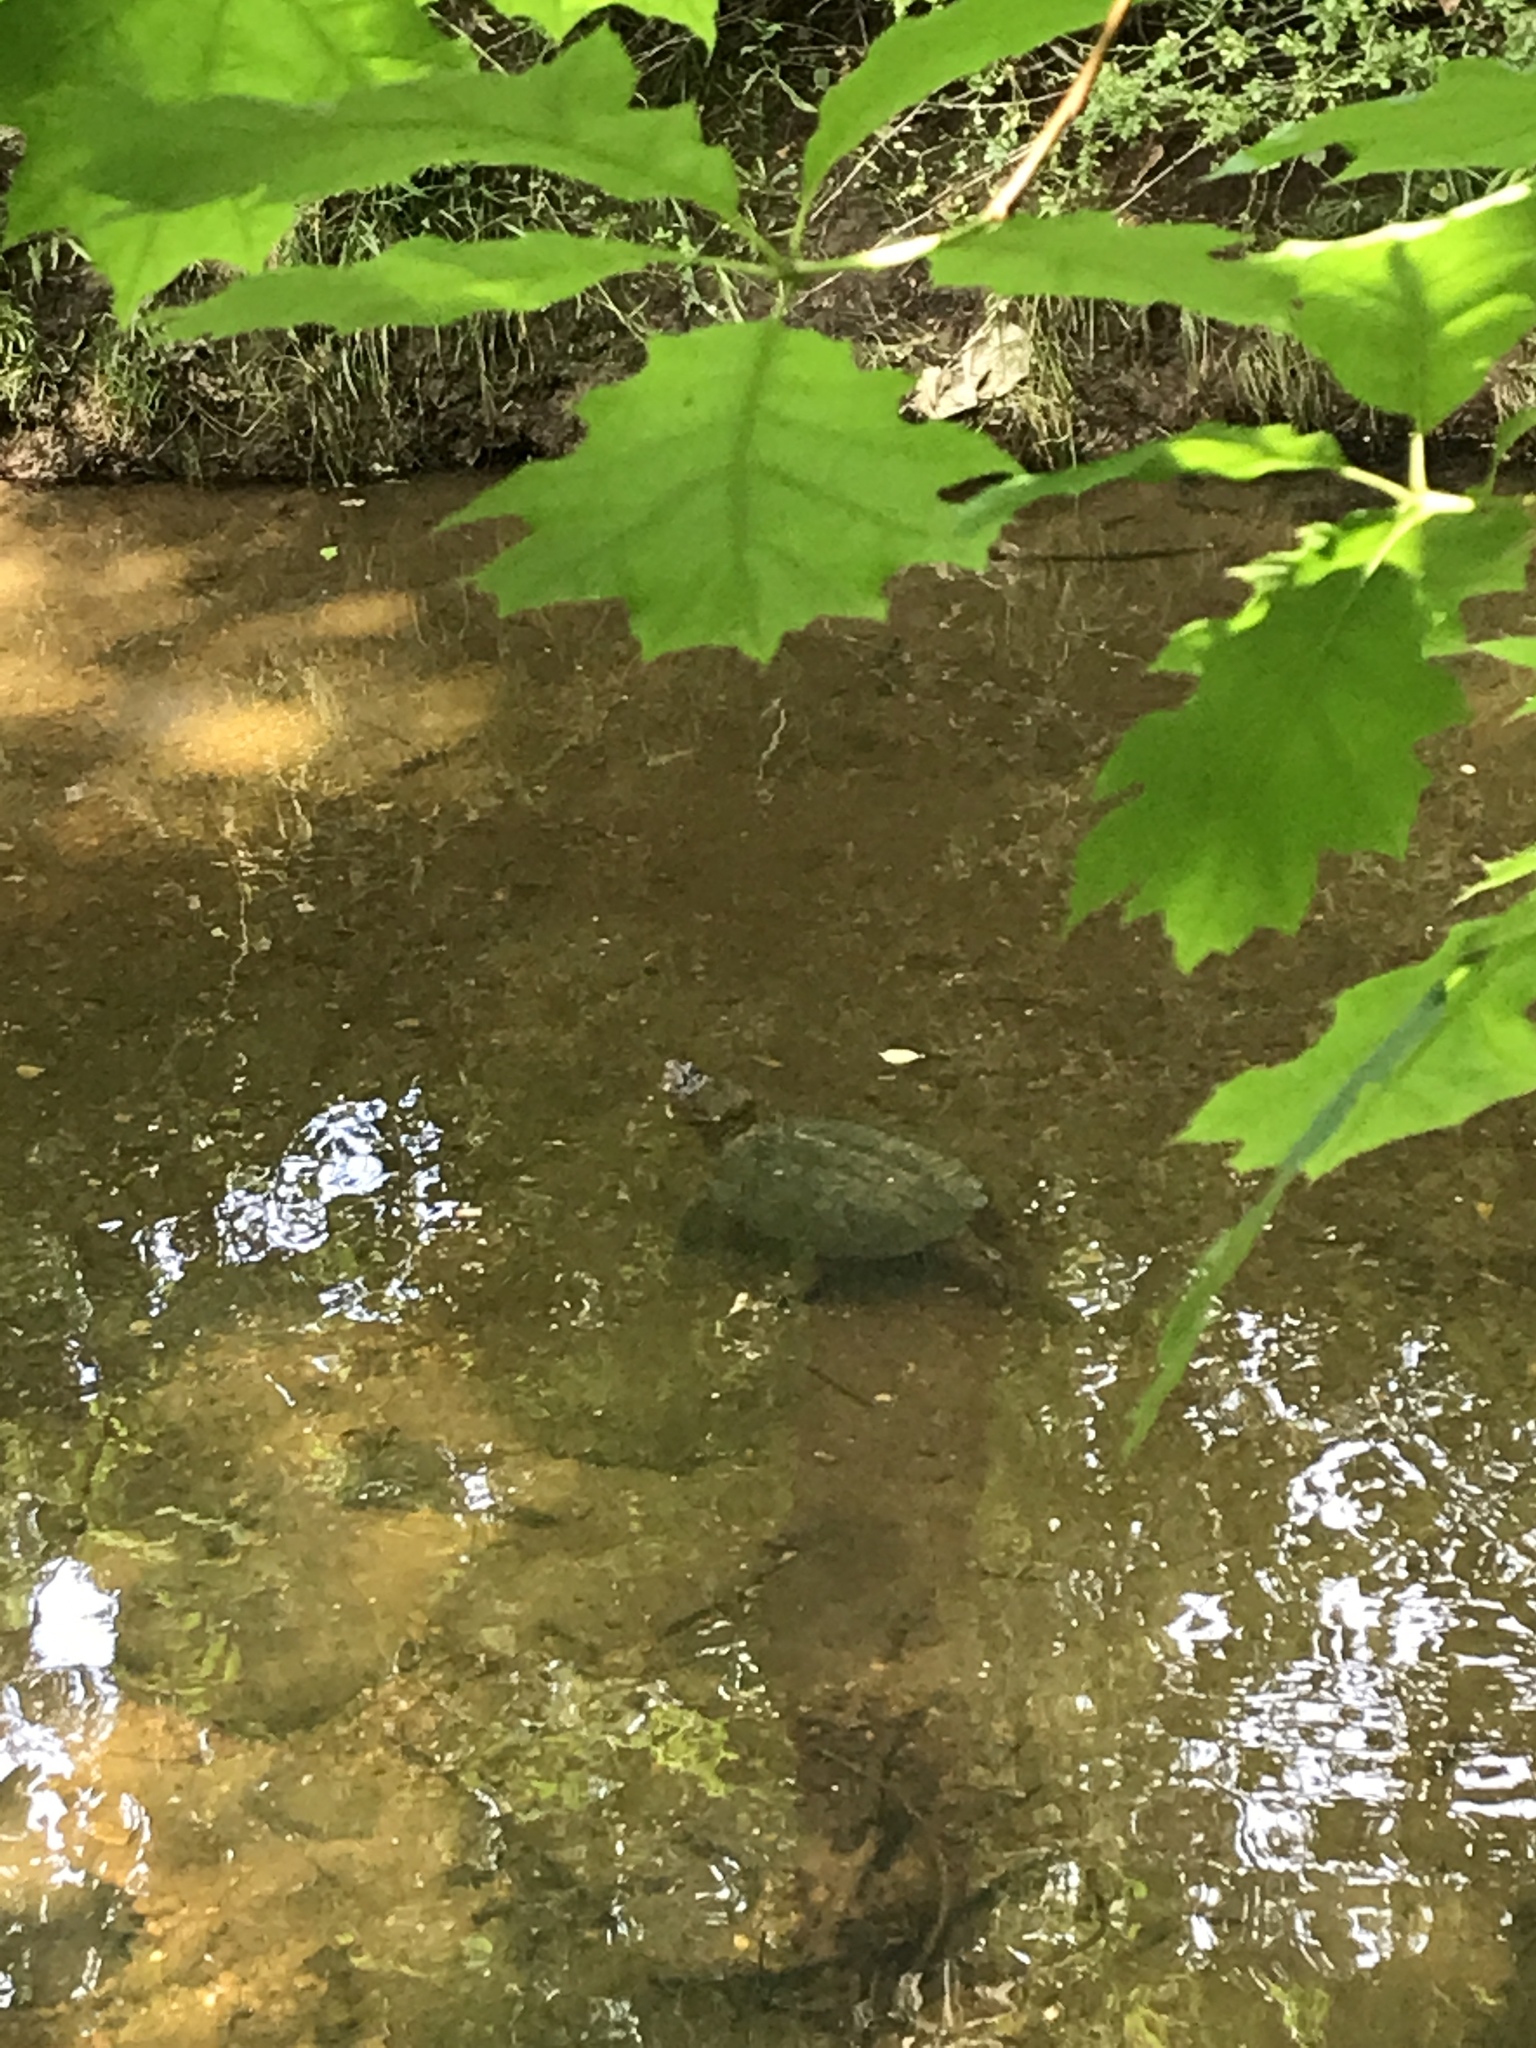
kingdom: Animalia
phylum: Chordata
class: Testudines
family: Chelydridae
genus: Chelydra
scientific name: Chelydra serpentina
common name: Common snapping turtle
